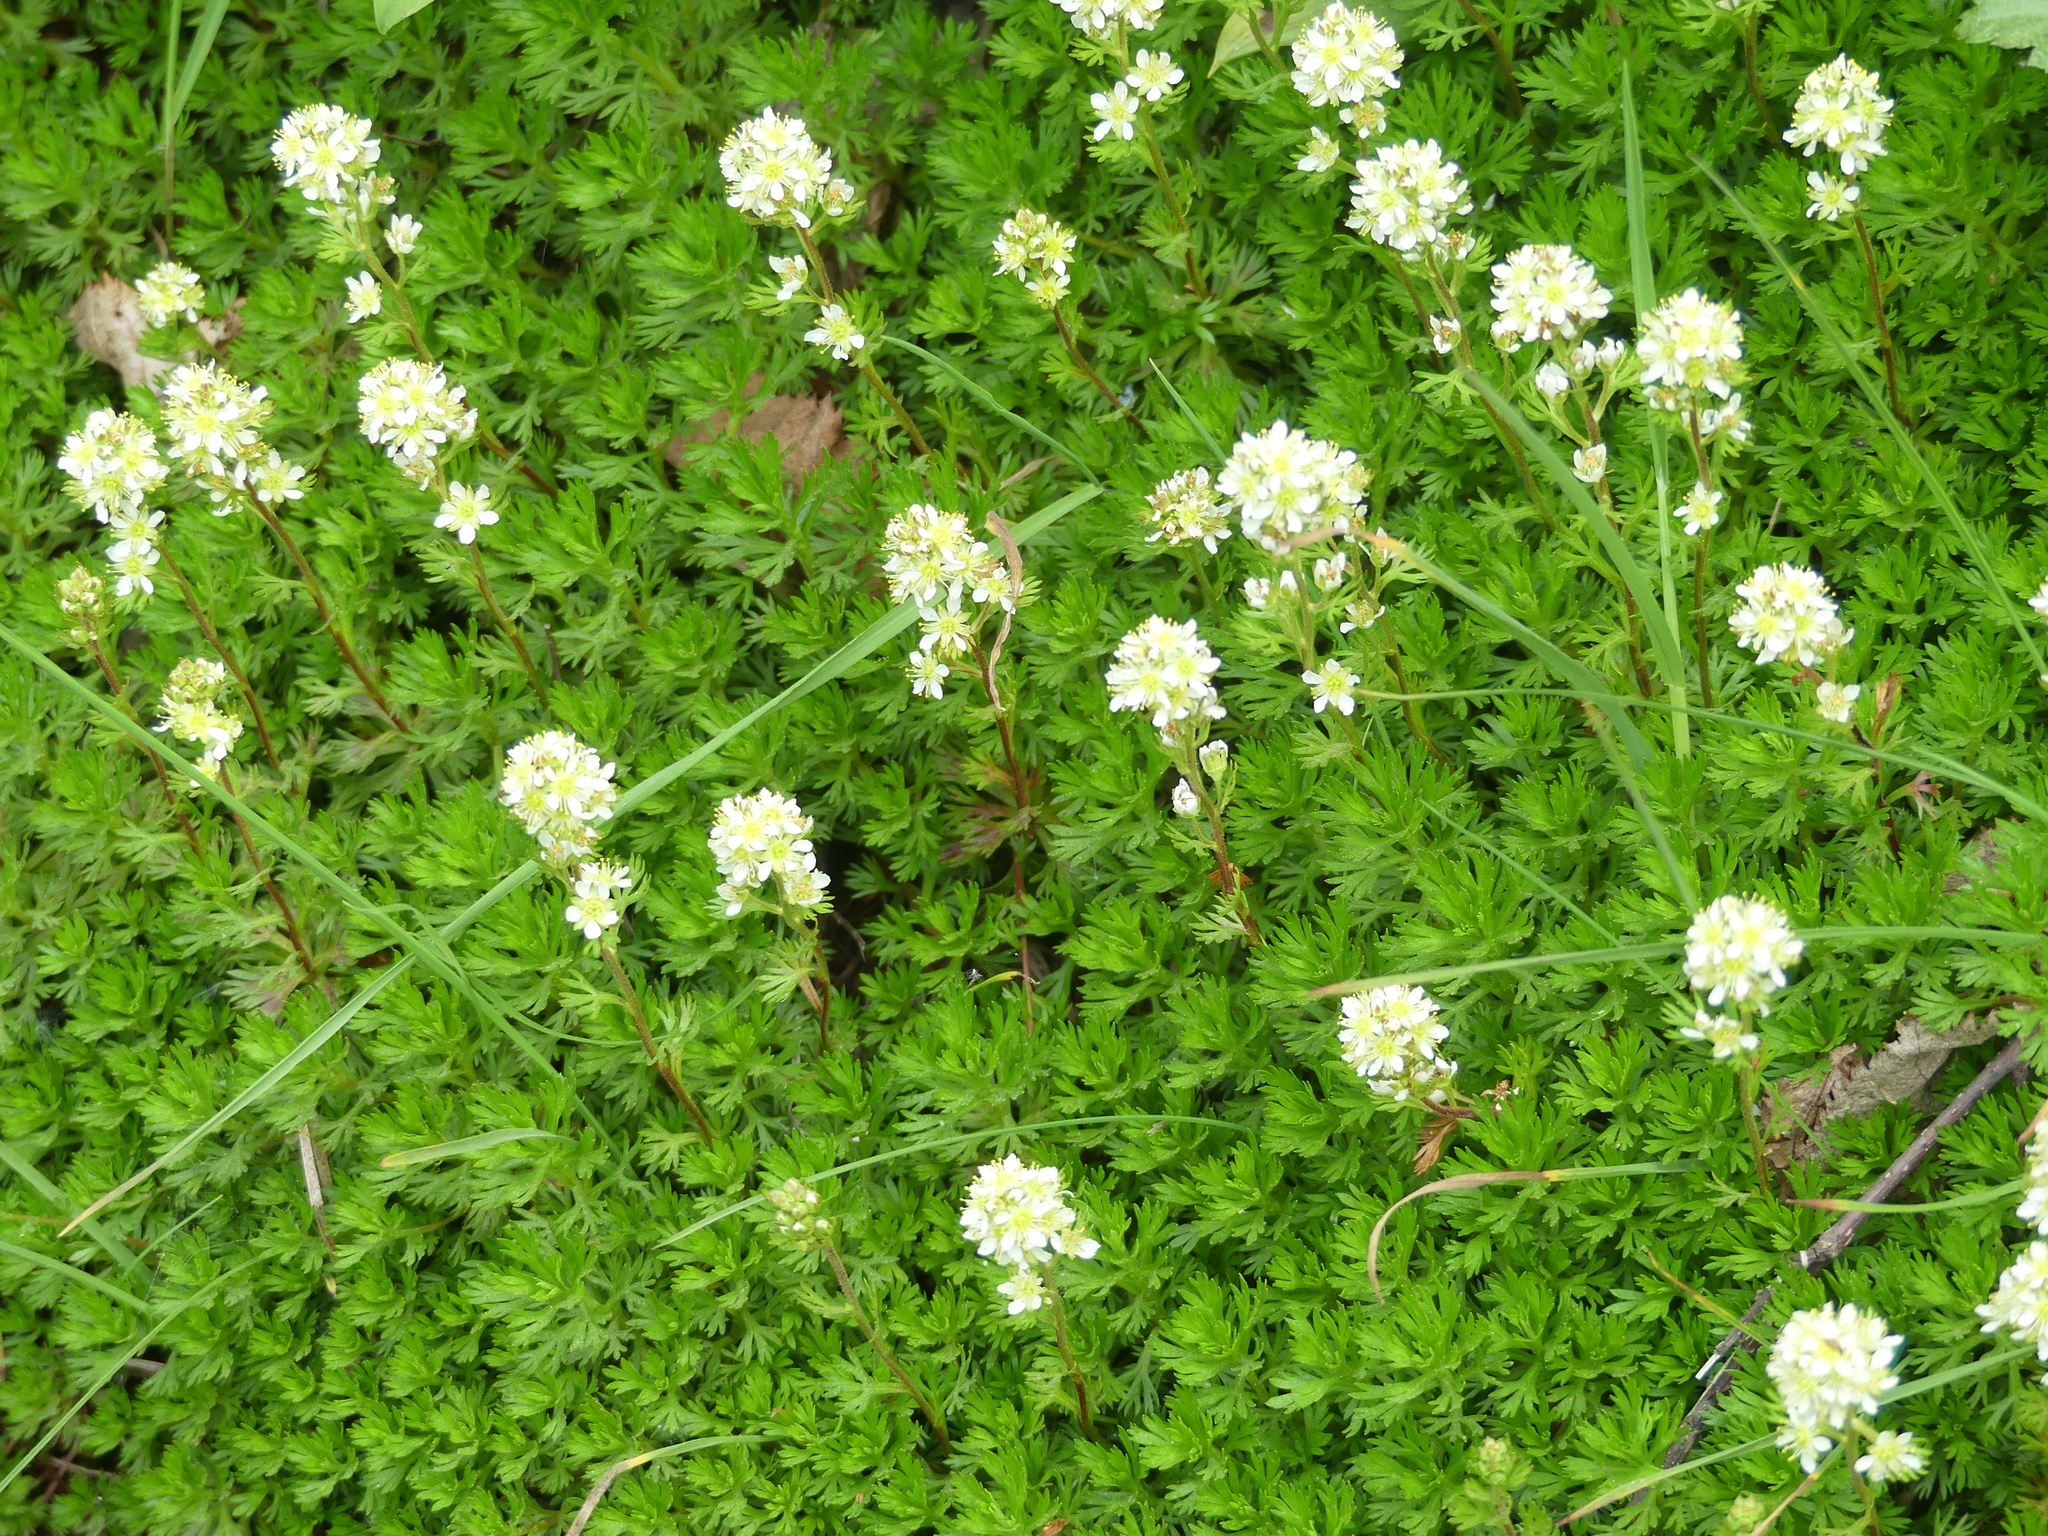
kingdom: Plantae
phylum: Tracheophyta
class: Magnoliopsida
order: Rosales
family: Rosaceae
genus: Luetkea
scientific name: Luetkea pectinata
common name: Partridgefoot
